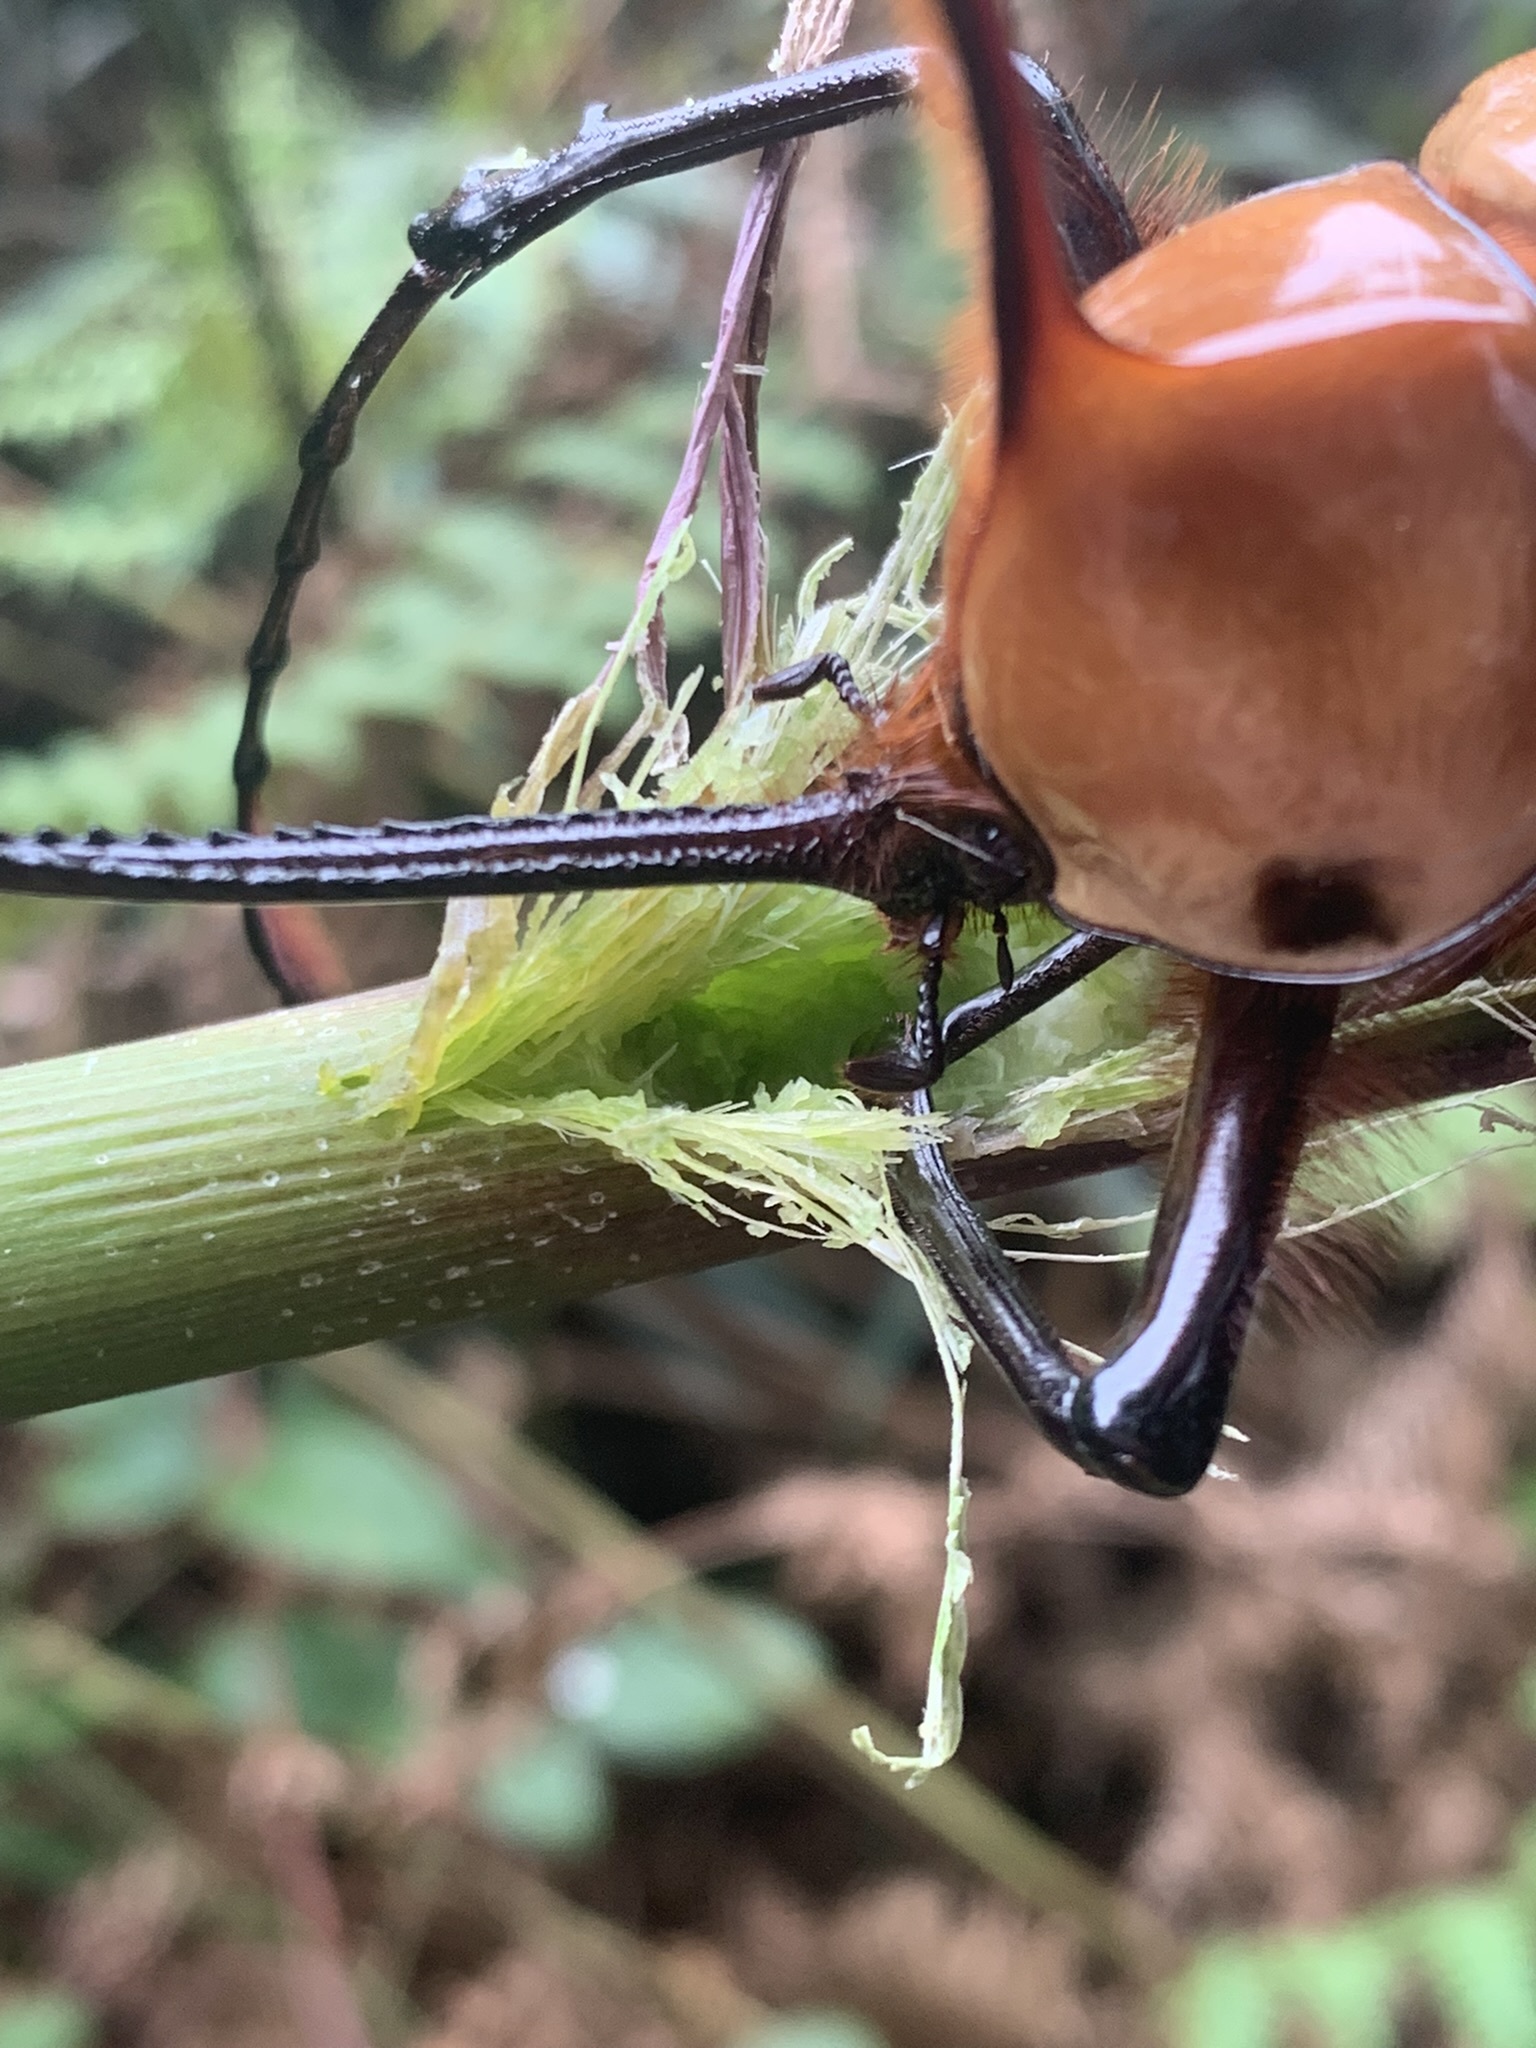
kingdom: Animalia
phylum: Arthropoda
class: Insecta
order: Coleoptera
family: Scarabaeidae
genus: Golofa
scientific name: Golofa porteri
